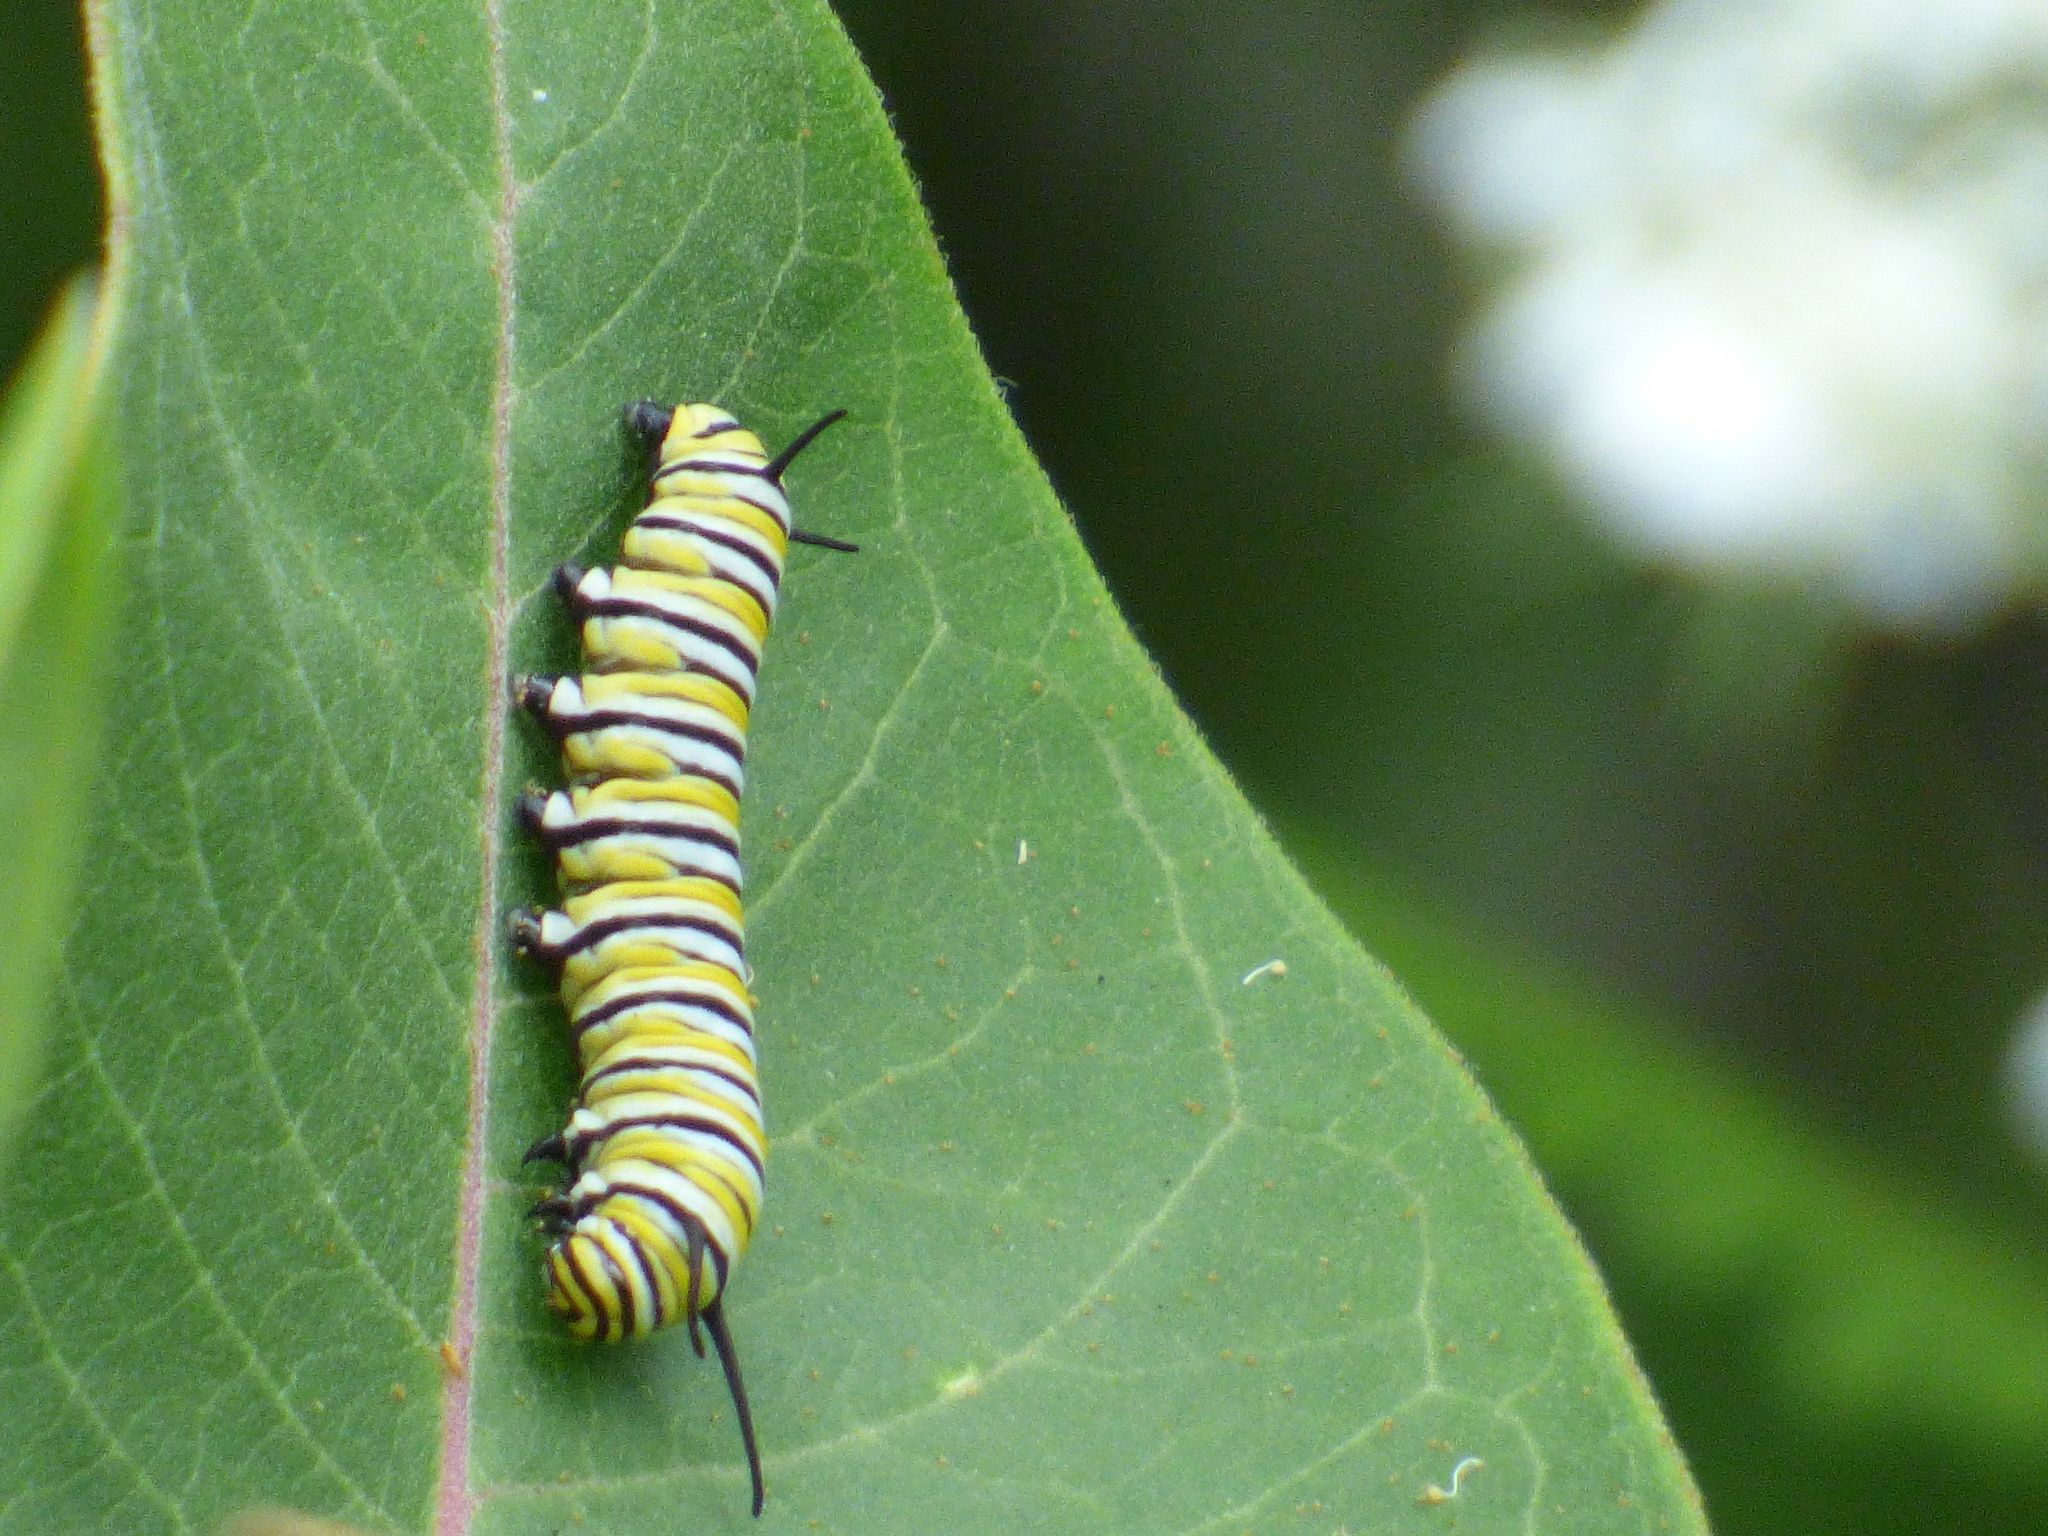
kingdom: Animalia
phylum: Arthropoda
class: Insecta
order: Lepidoptera
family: Nymphalidae
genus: Danaus
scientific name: Danaus plexippus
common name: Monarch
